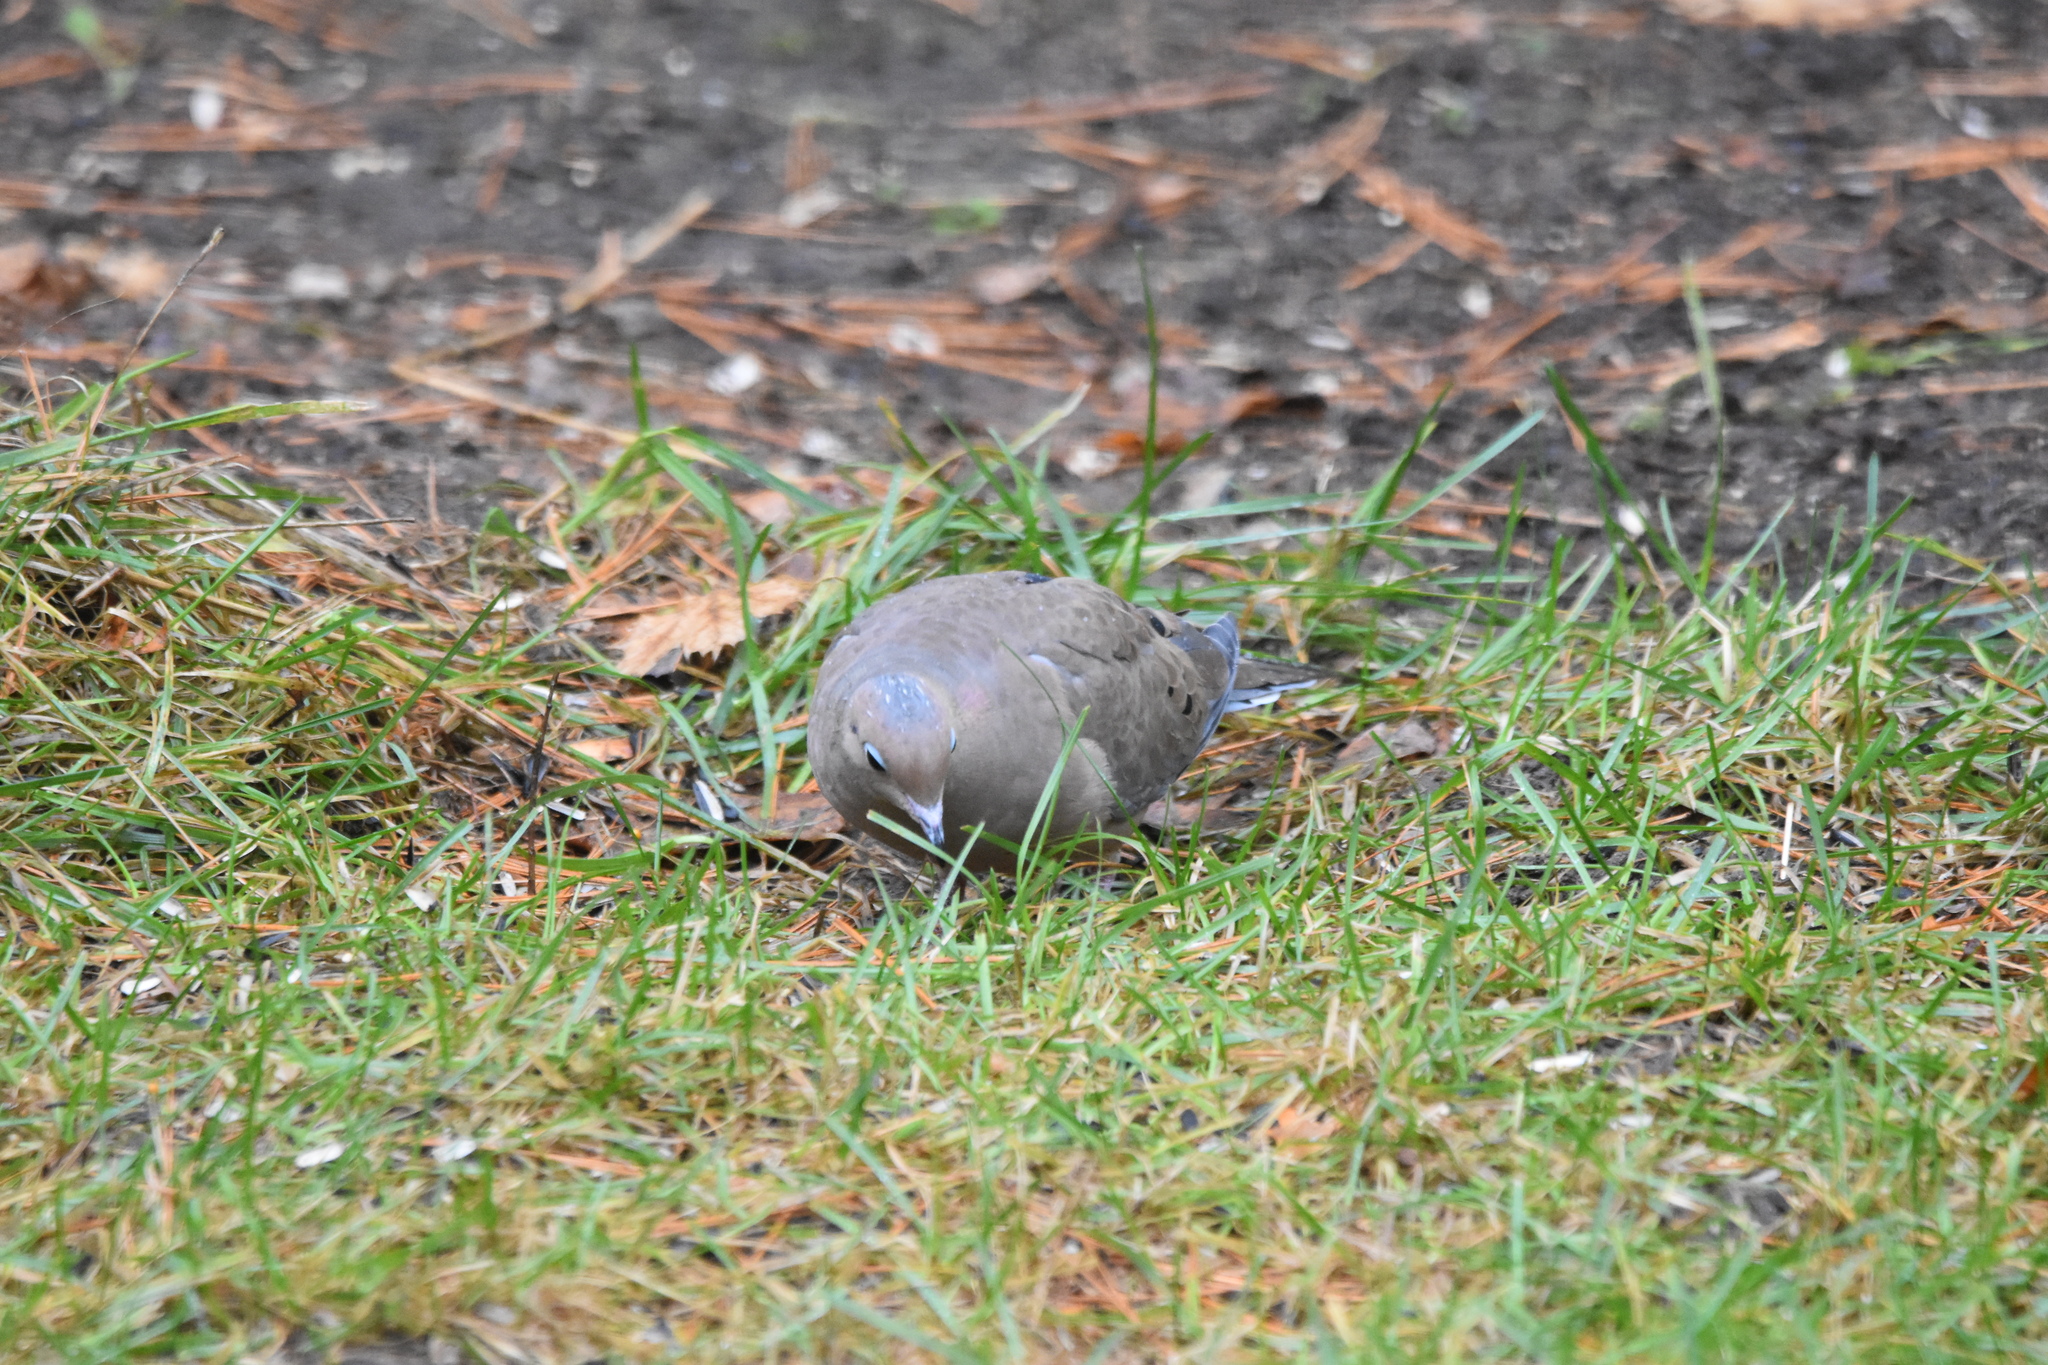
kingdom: Animalia
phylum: Chordata
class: Aves
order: Columbiformes
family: Columbidae
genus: Zenaida
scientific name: Zenaida macroura
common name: Mourning dove
